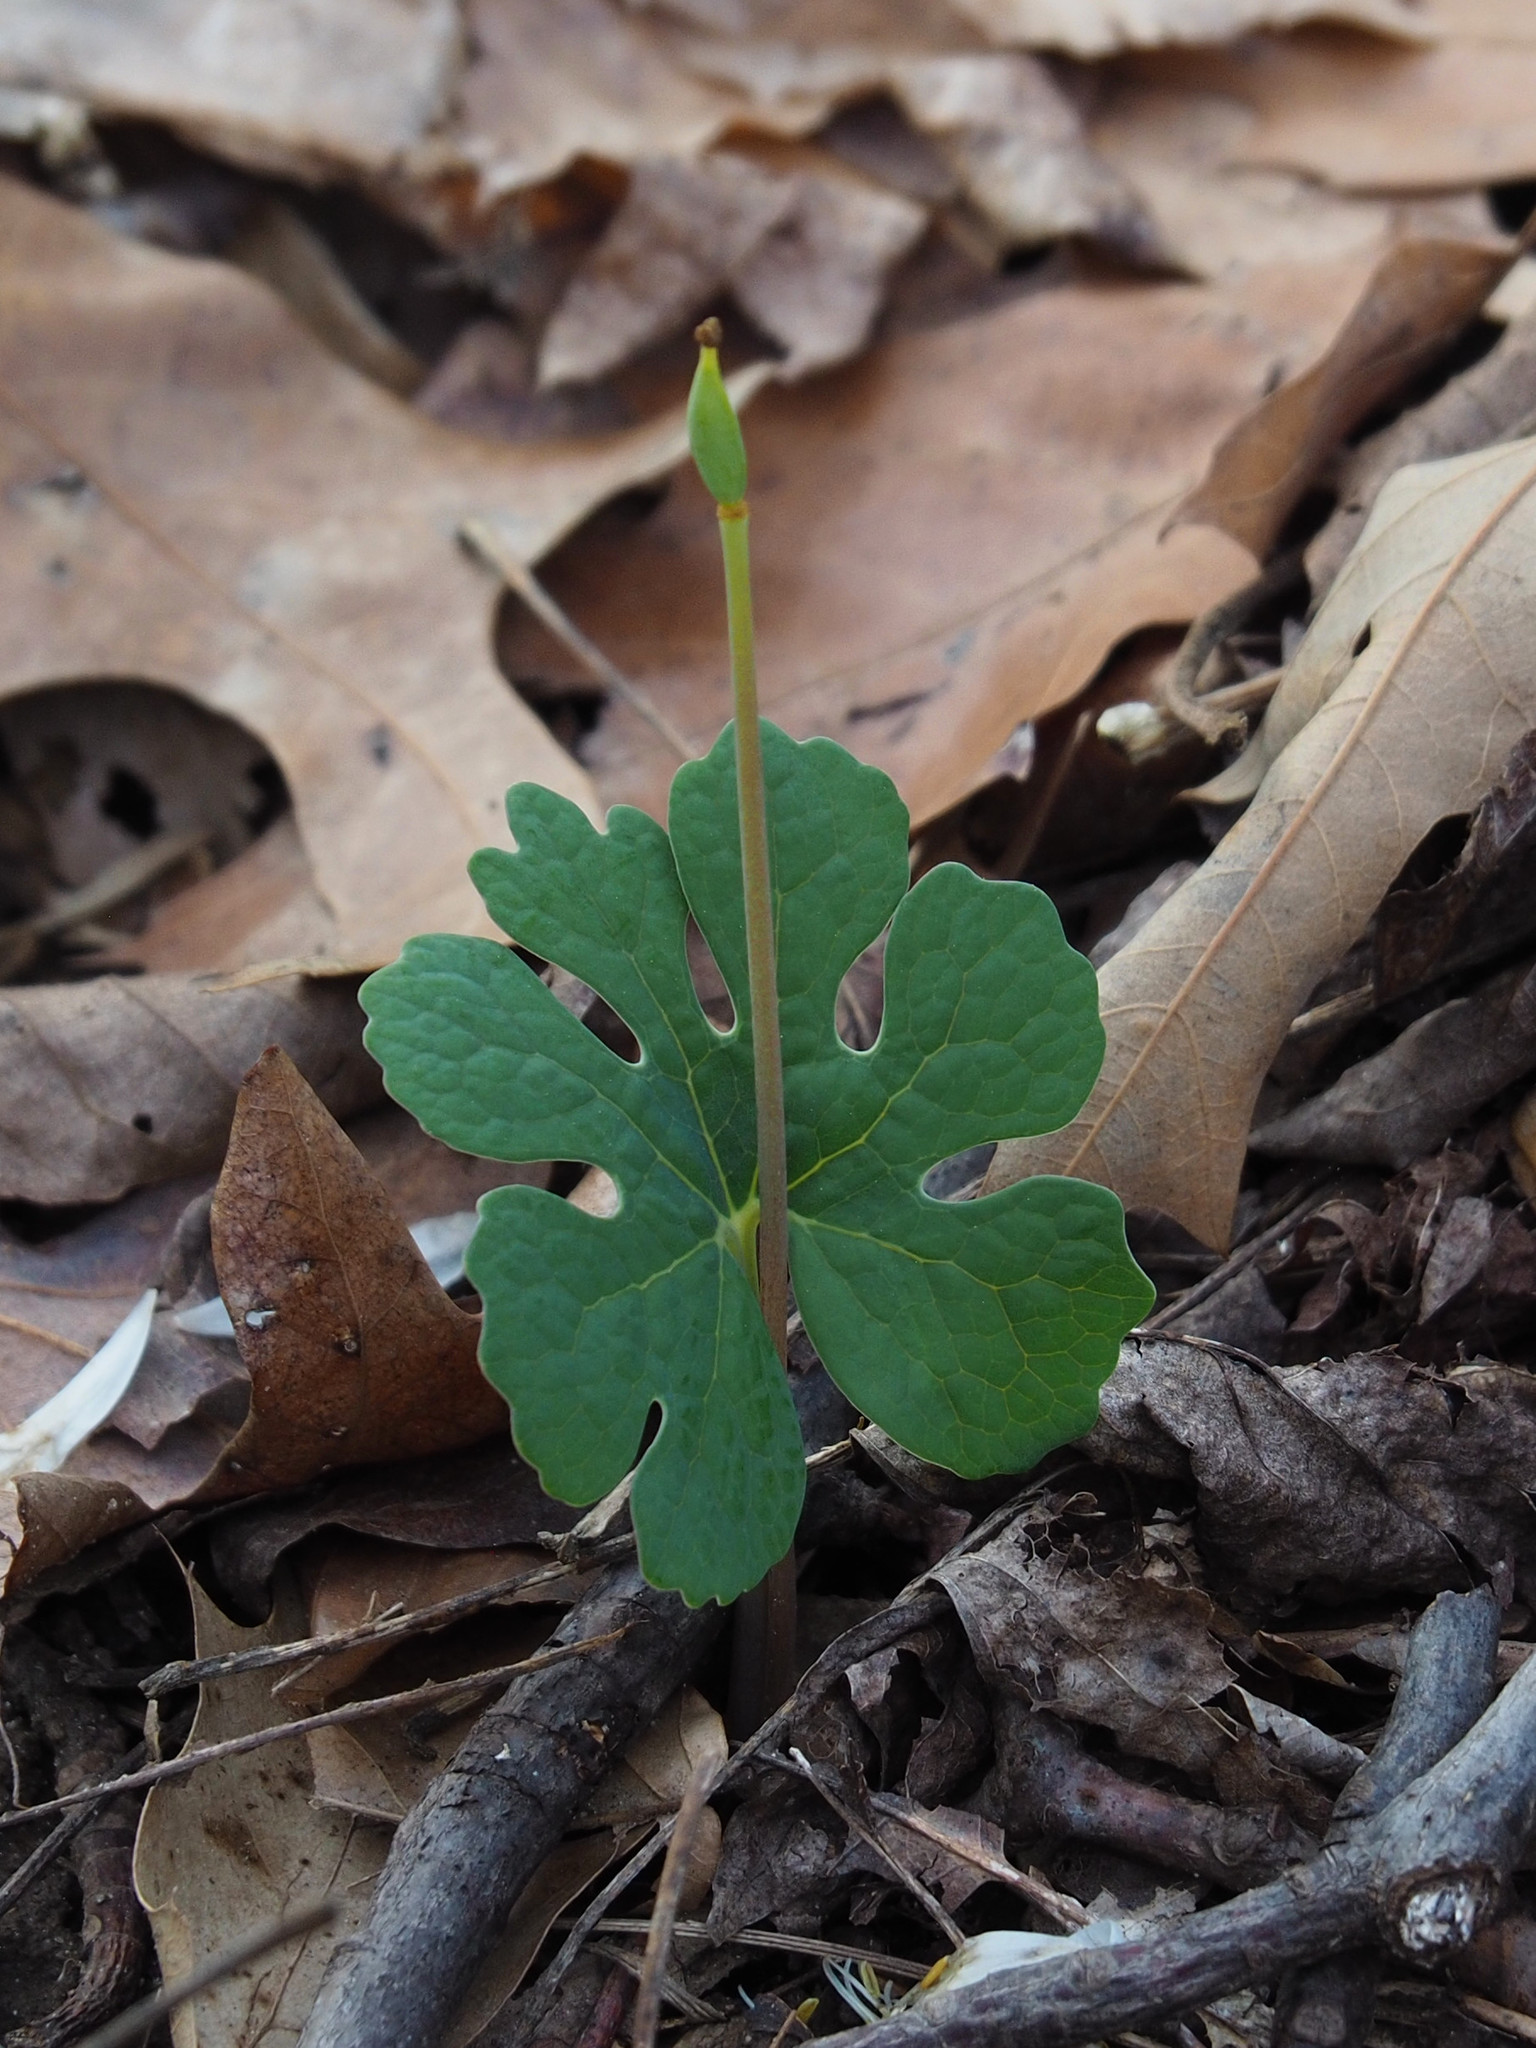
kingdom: Plantae
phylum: Tracheophyta
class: Magnoliopsida
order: Ranunculales
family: Papaveraceae
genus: Sanguinaria
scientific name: Sanguinaria canadensis
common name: Bloodroot
